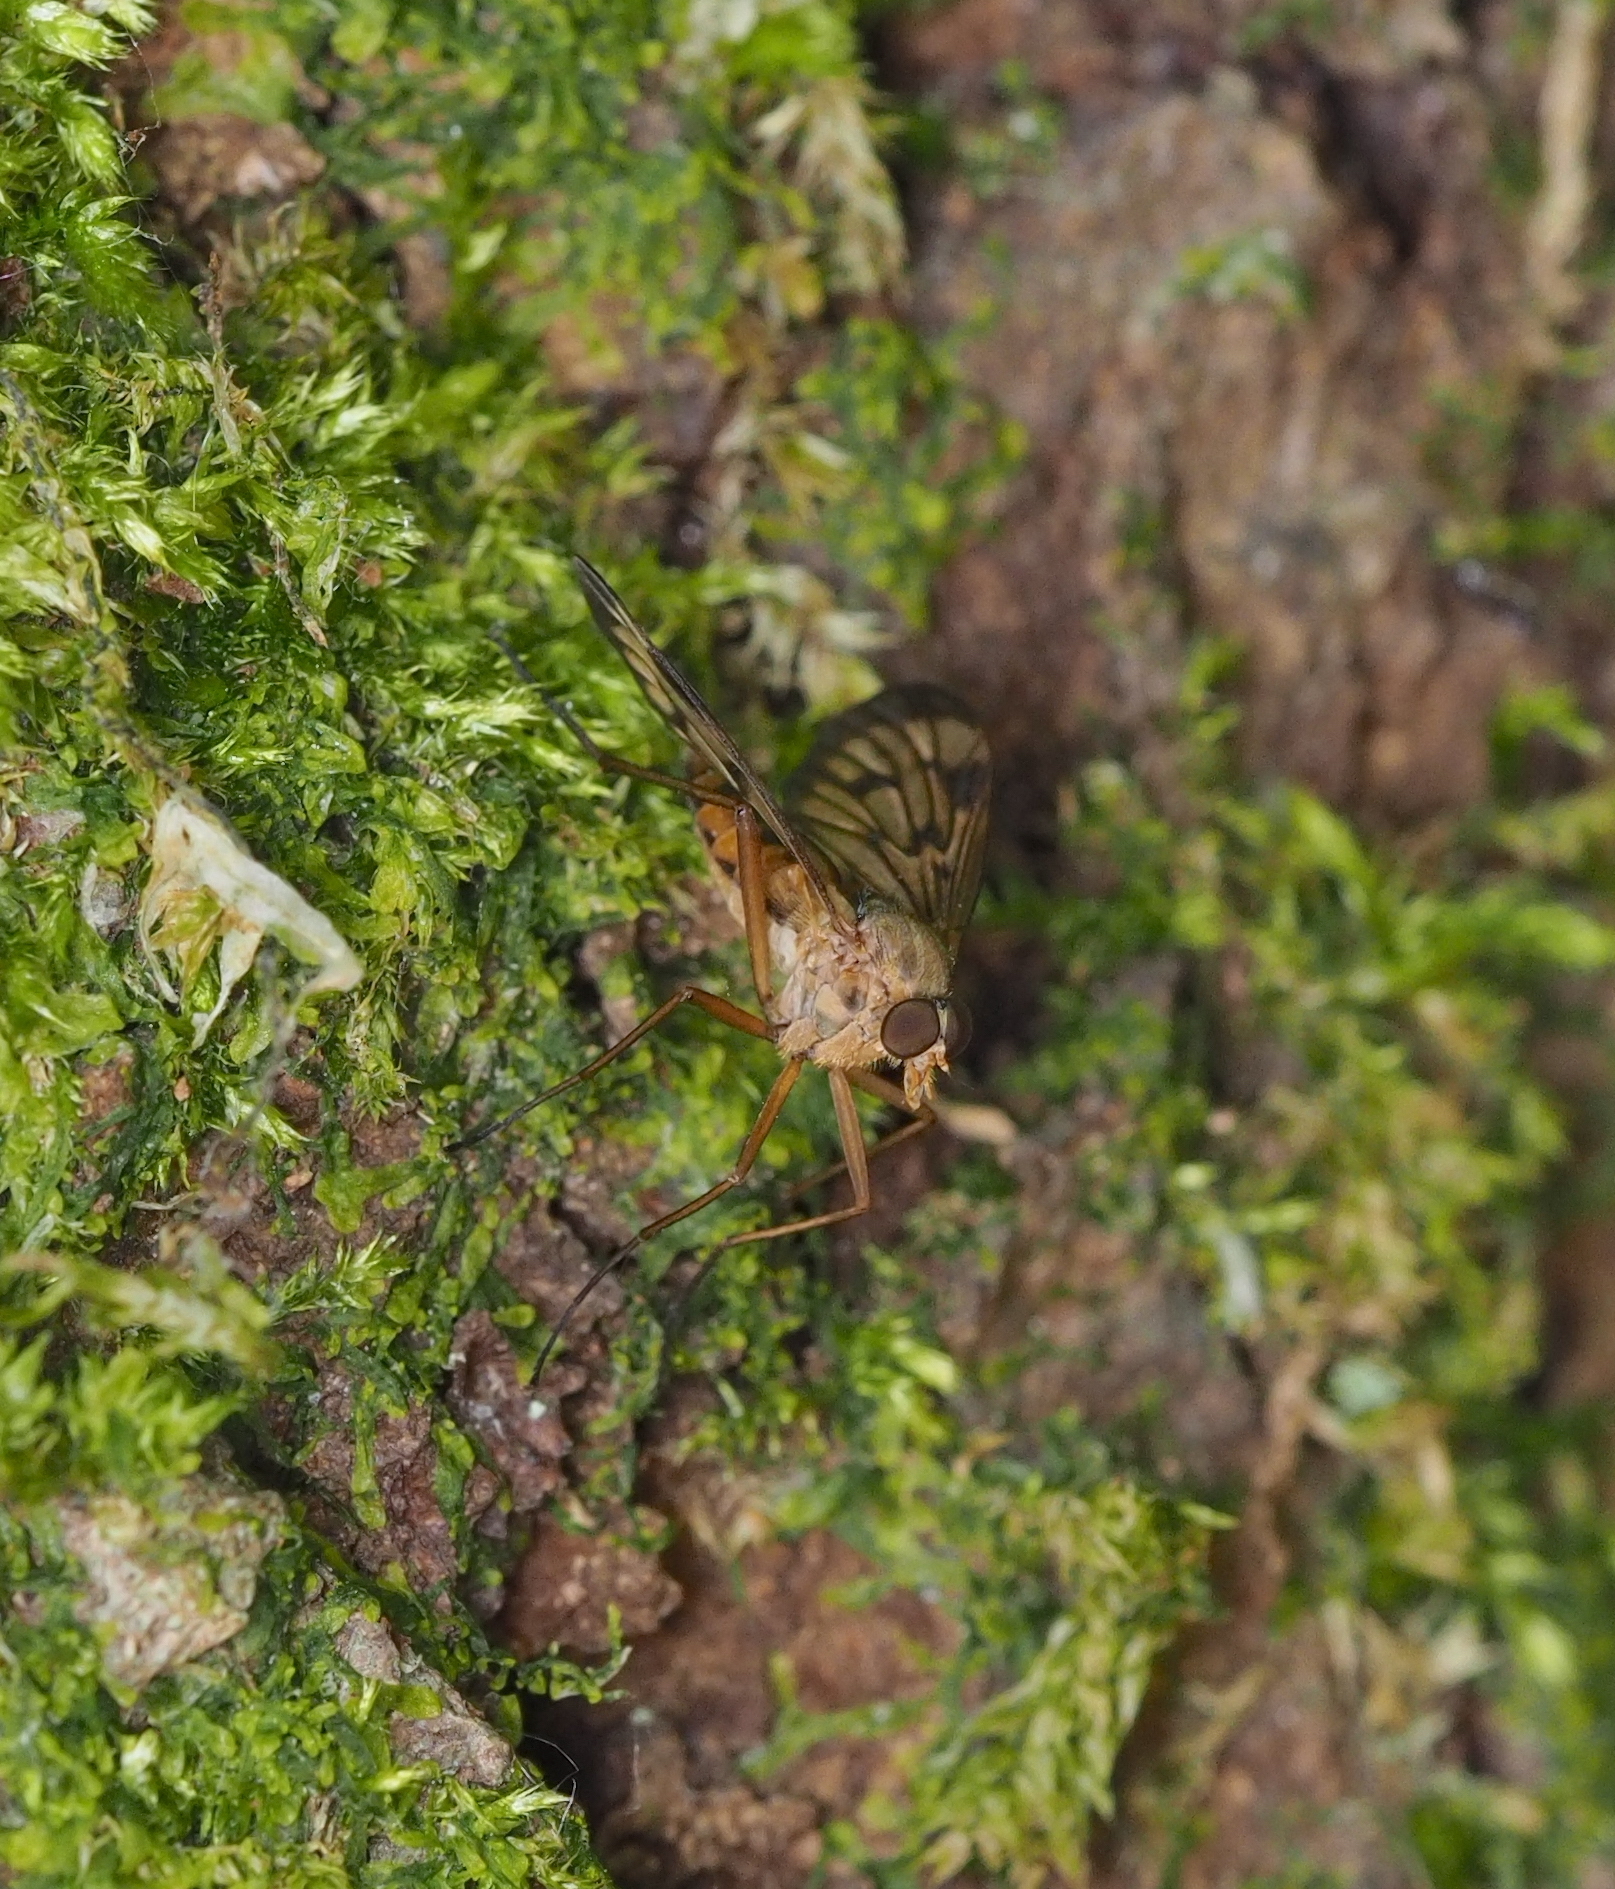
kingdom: Animalia
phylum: Arthropoda
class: Insecta
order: Diptera
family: Rhagionidae
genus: Rhagio
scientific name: Rhagio latipennis
